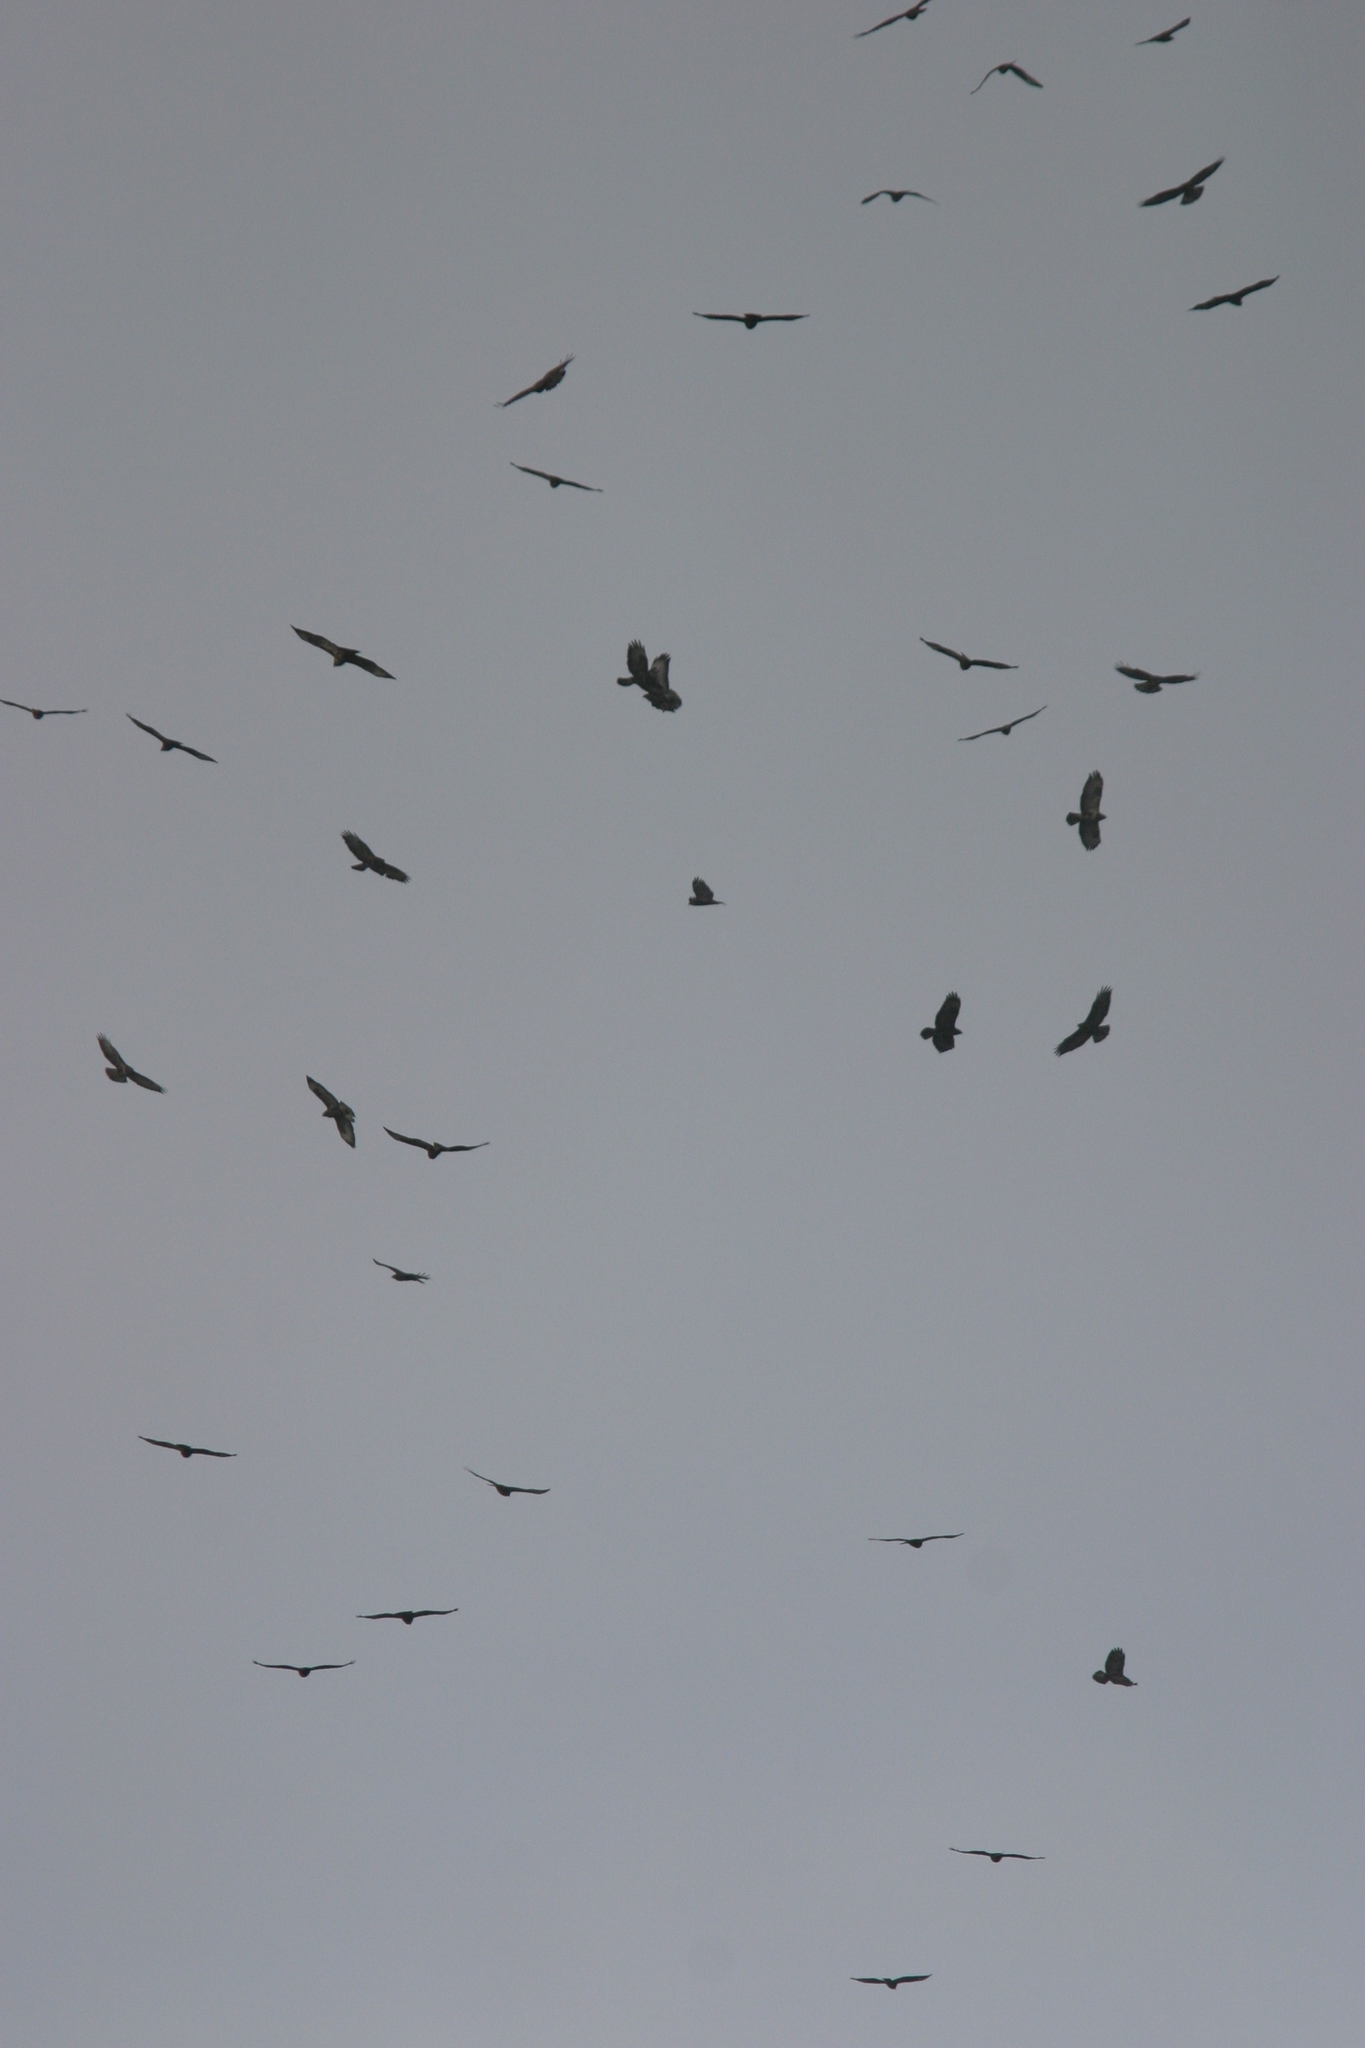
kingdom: Animalia
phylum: Chordata
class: Aves
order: Accipitriformes
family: Accipitridae
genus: Buteo
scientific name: Buteo buteo
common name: Common buzzard
